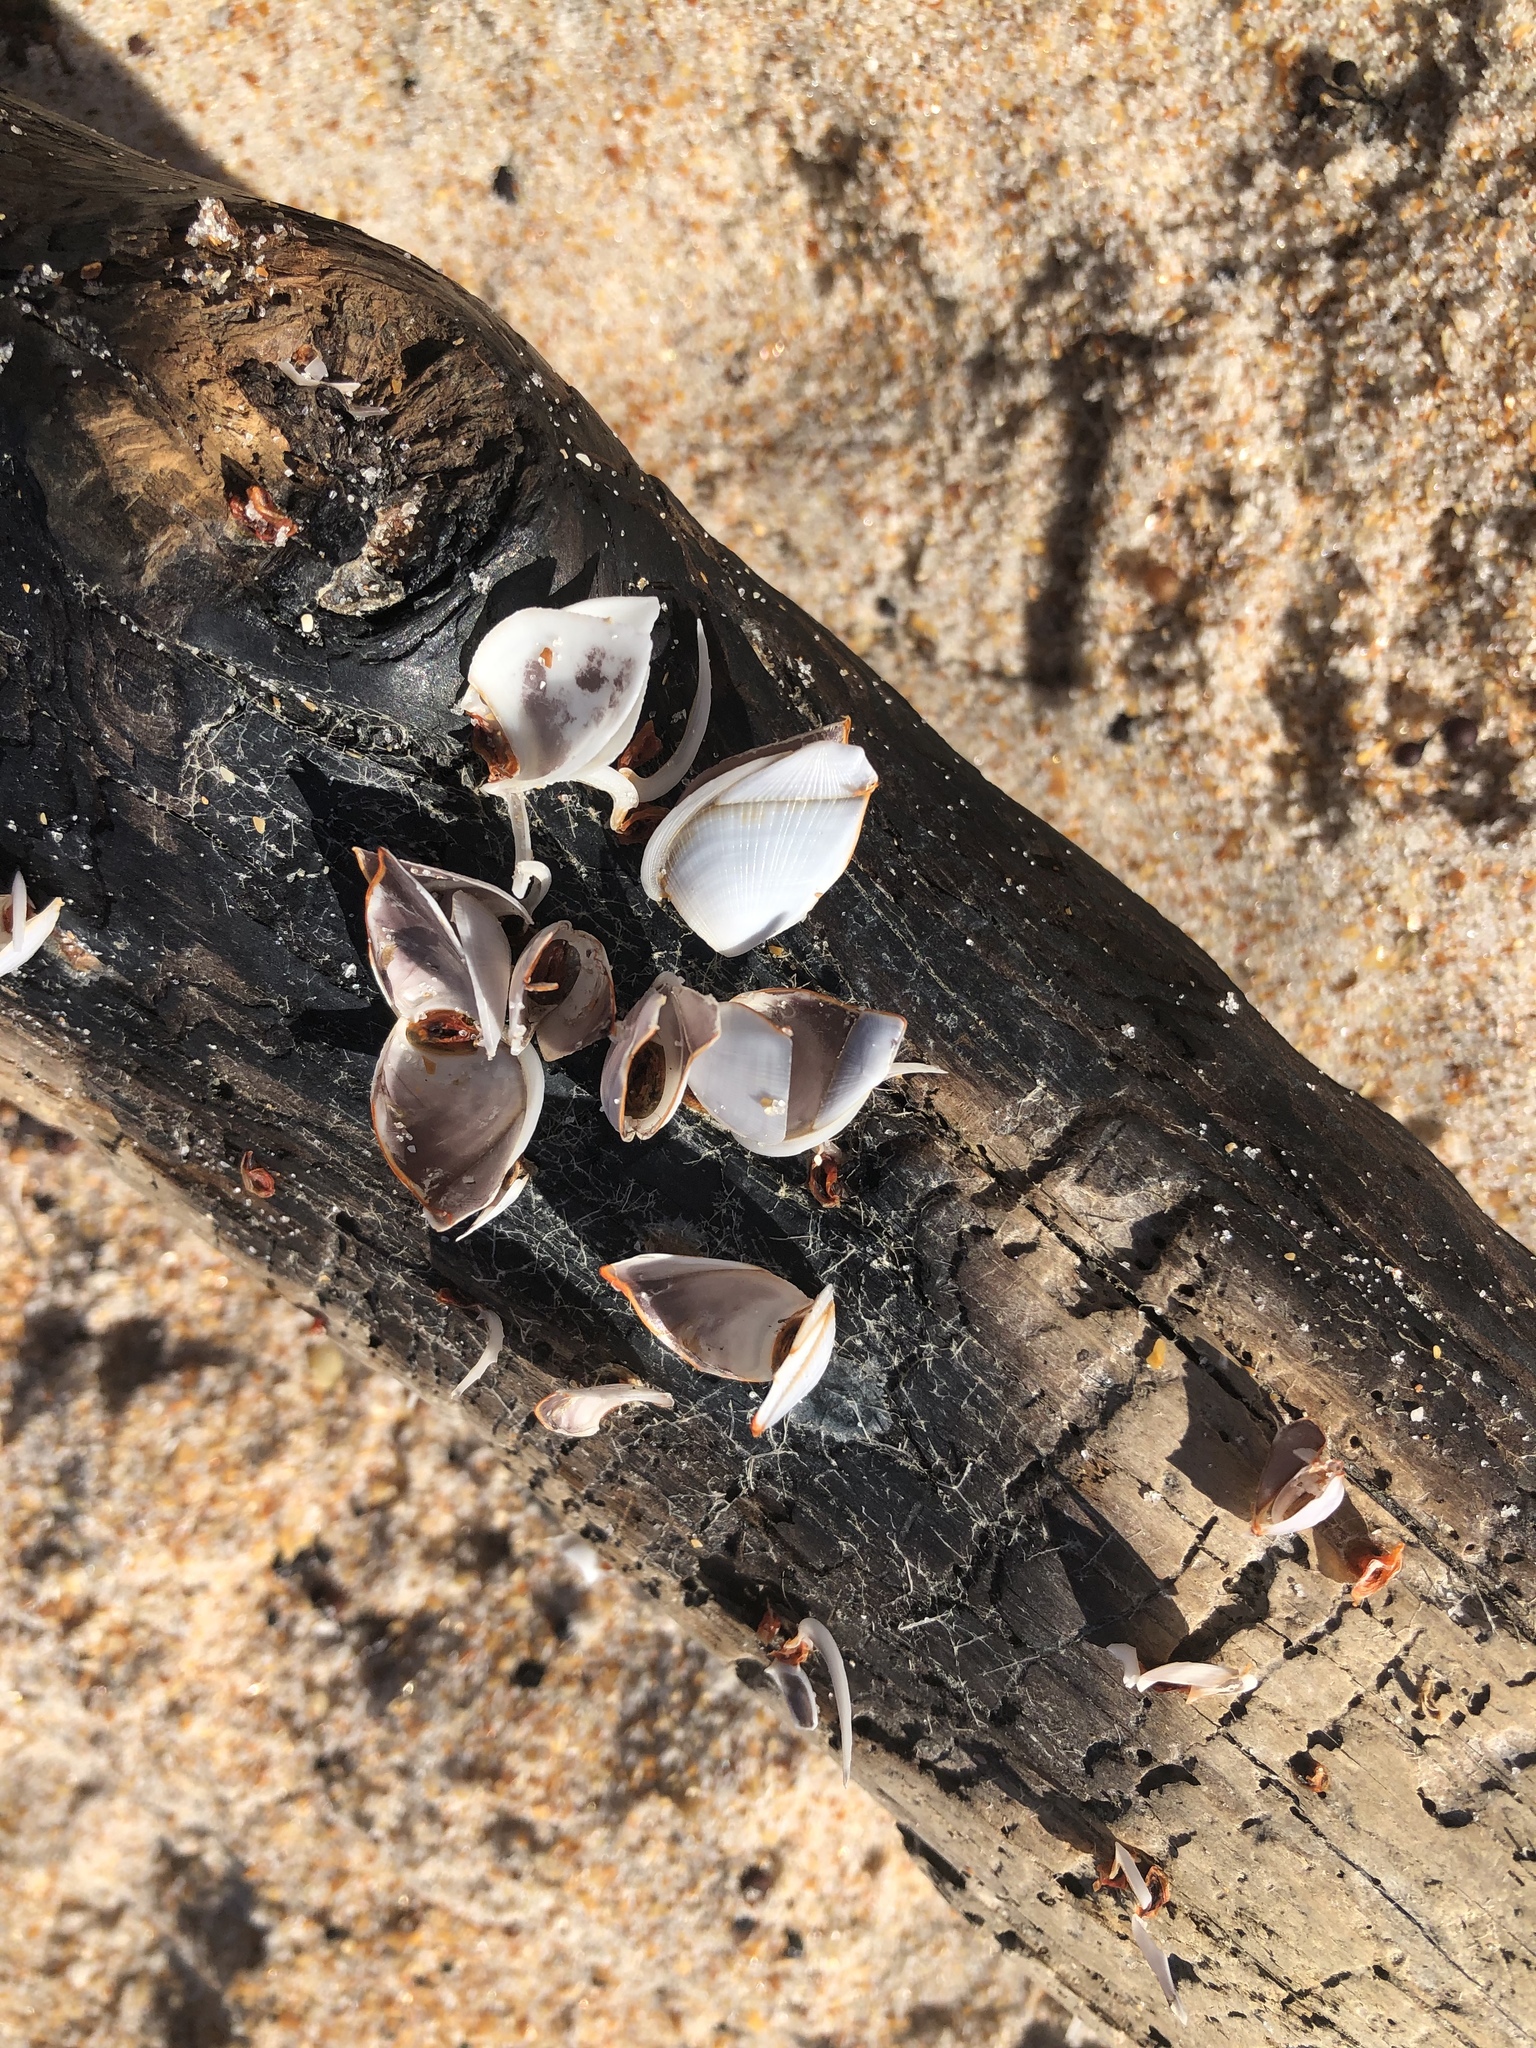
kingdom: Animalia
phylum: Arthropoda
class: Maxillopoda
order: Pedunculata
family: Lepadidae
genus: Lepas
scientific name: Lepas anserifera
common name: Goose barnacle
